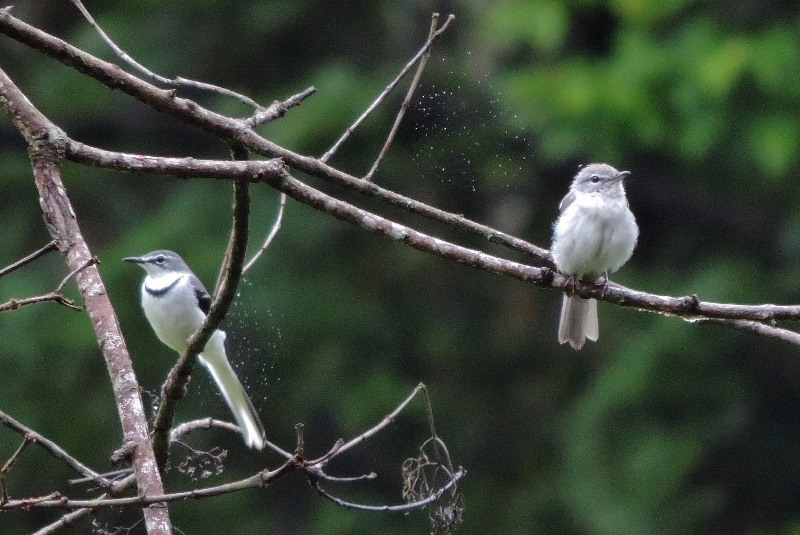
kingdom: Animalia
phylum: Chordata
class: Aves
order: Passeriformes
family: Motacillidae
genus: Motacilla
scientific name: Motacilla clara
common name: Mountain wagtail
